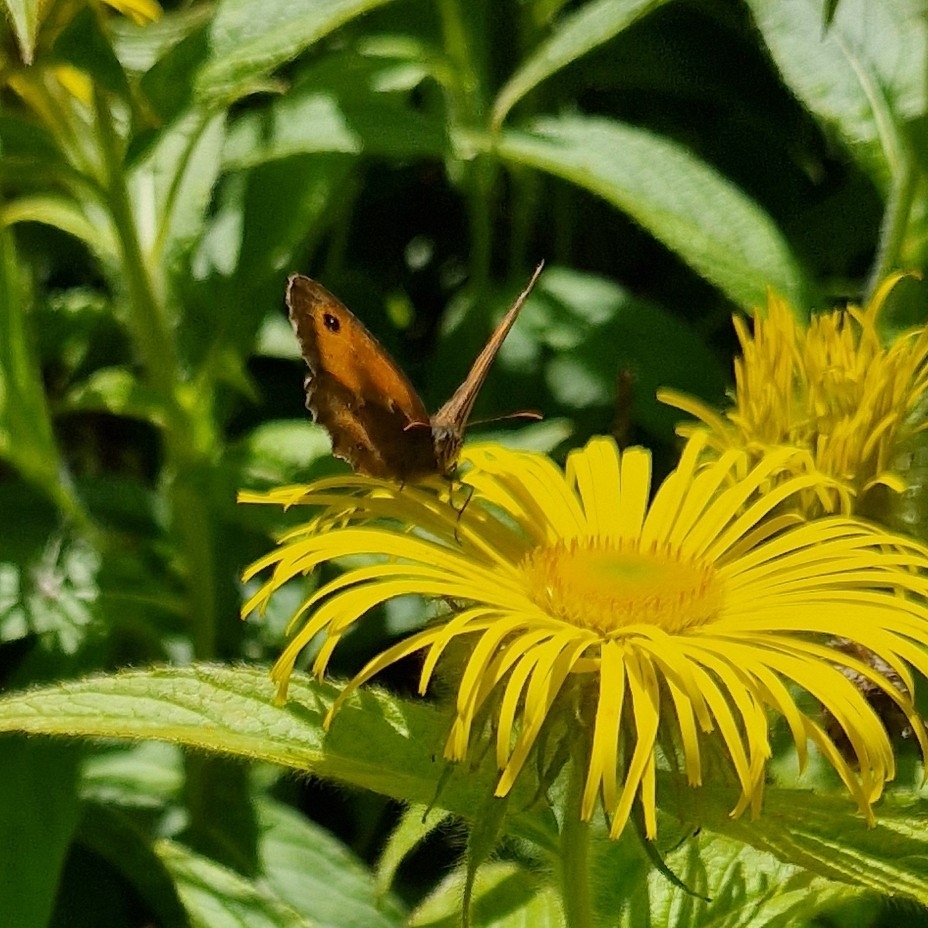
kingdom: Animalia
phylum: Arthropoda
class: Insecta
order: Lepidoptera
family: Nymphalidae
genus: Pyronia
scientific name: Pyronia tithonus
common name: Gatekeeper
